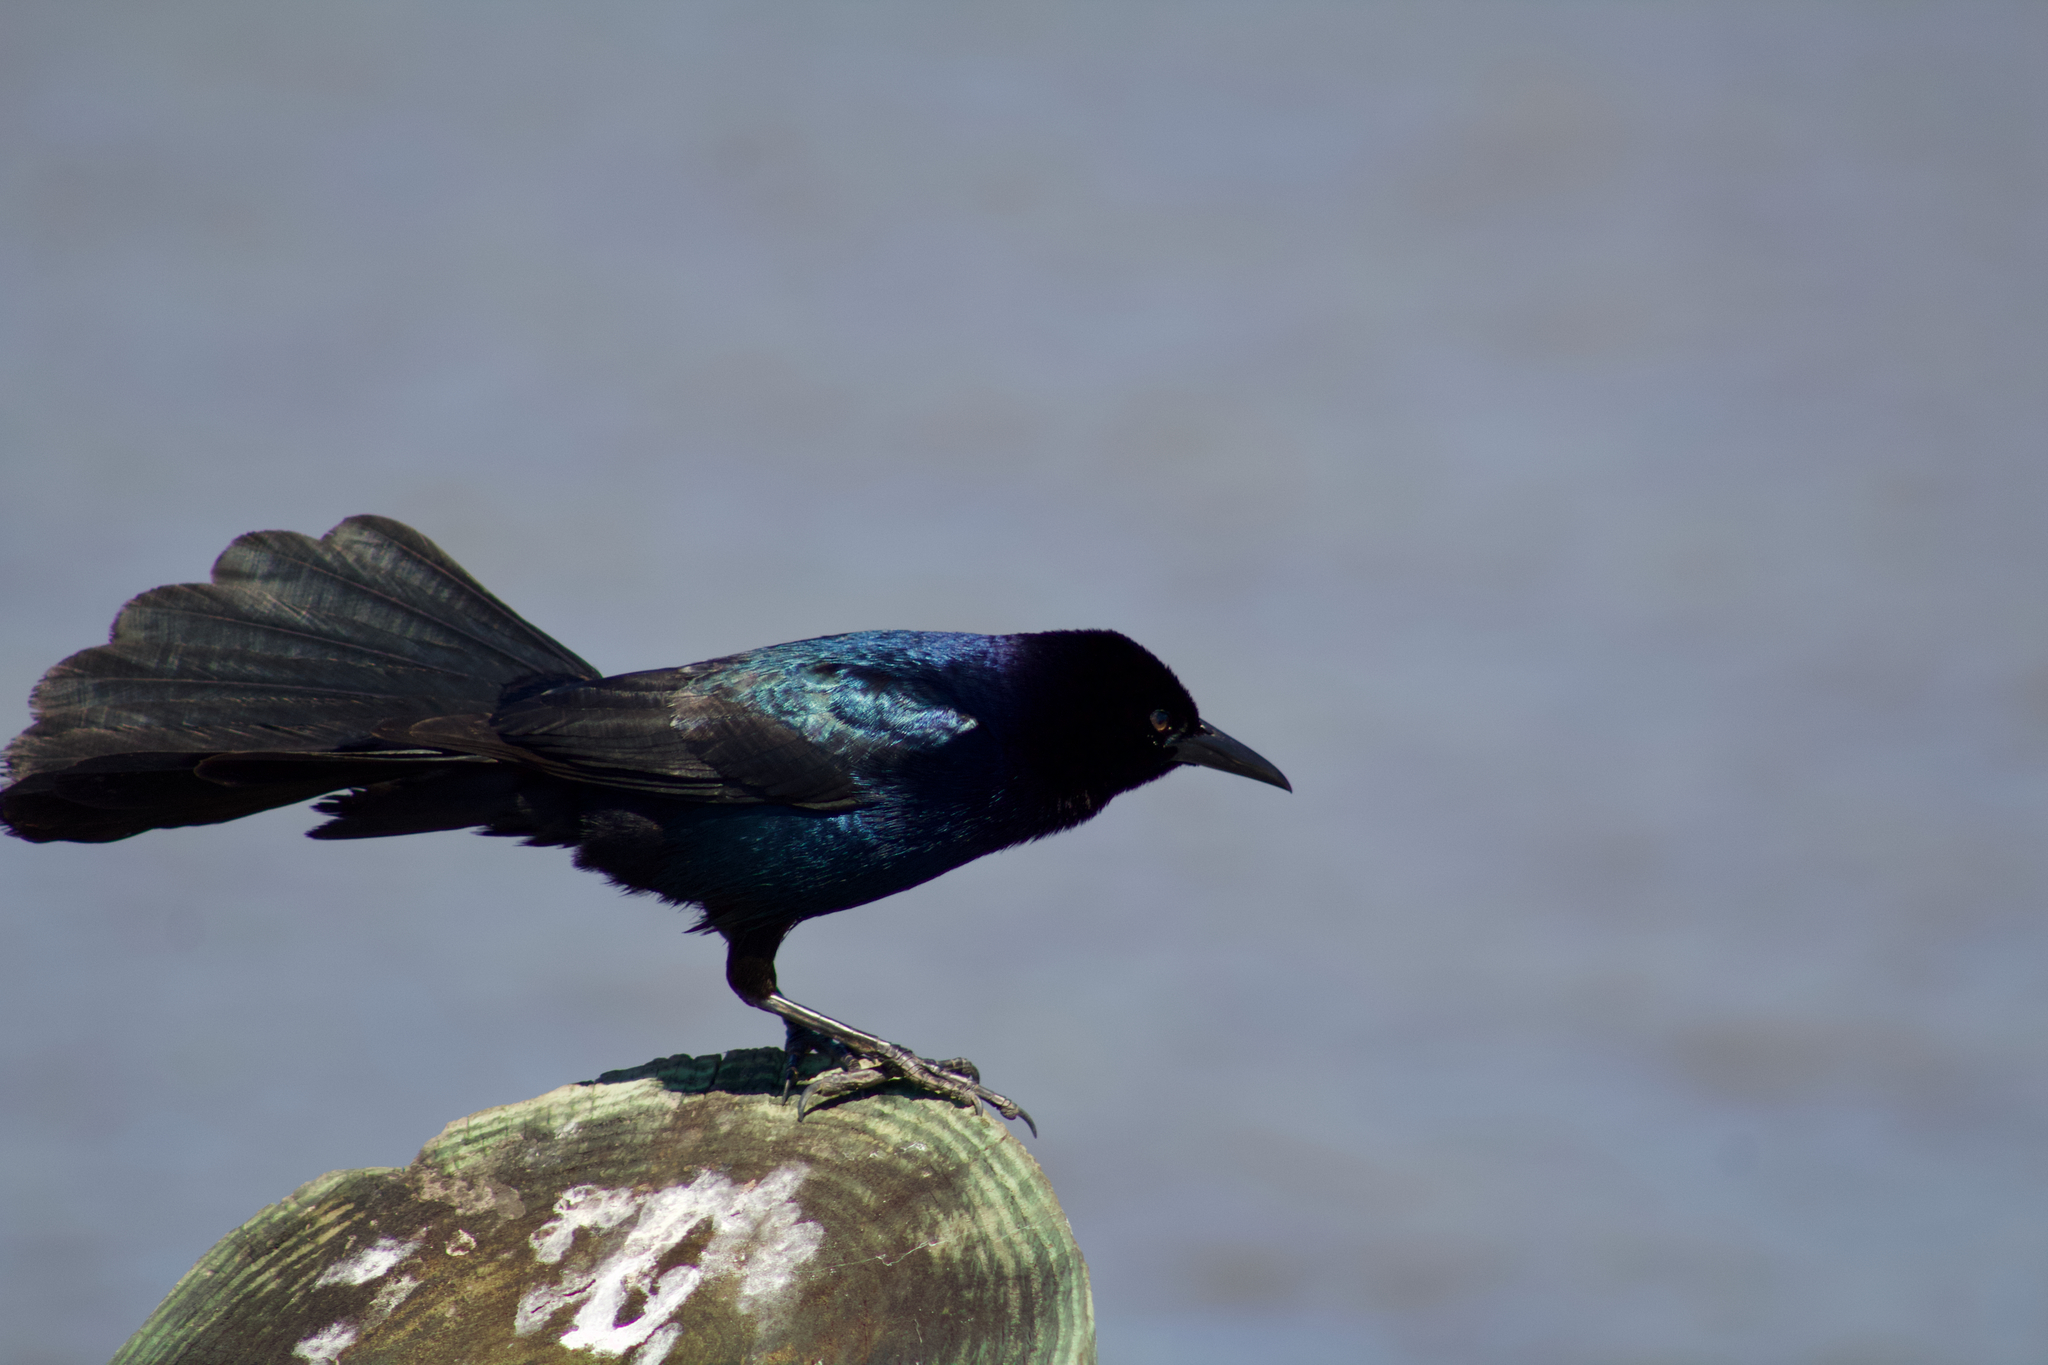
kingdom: Animalia
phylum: Chordata
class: Aves
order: Passeriformes
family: Icteridae
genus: Quiscalus
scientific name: Quiscalus major
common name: Boat-tailed grackle
